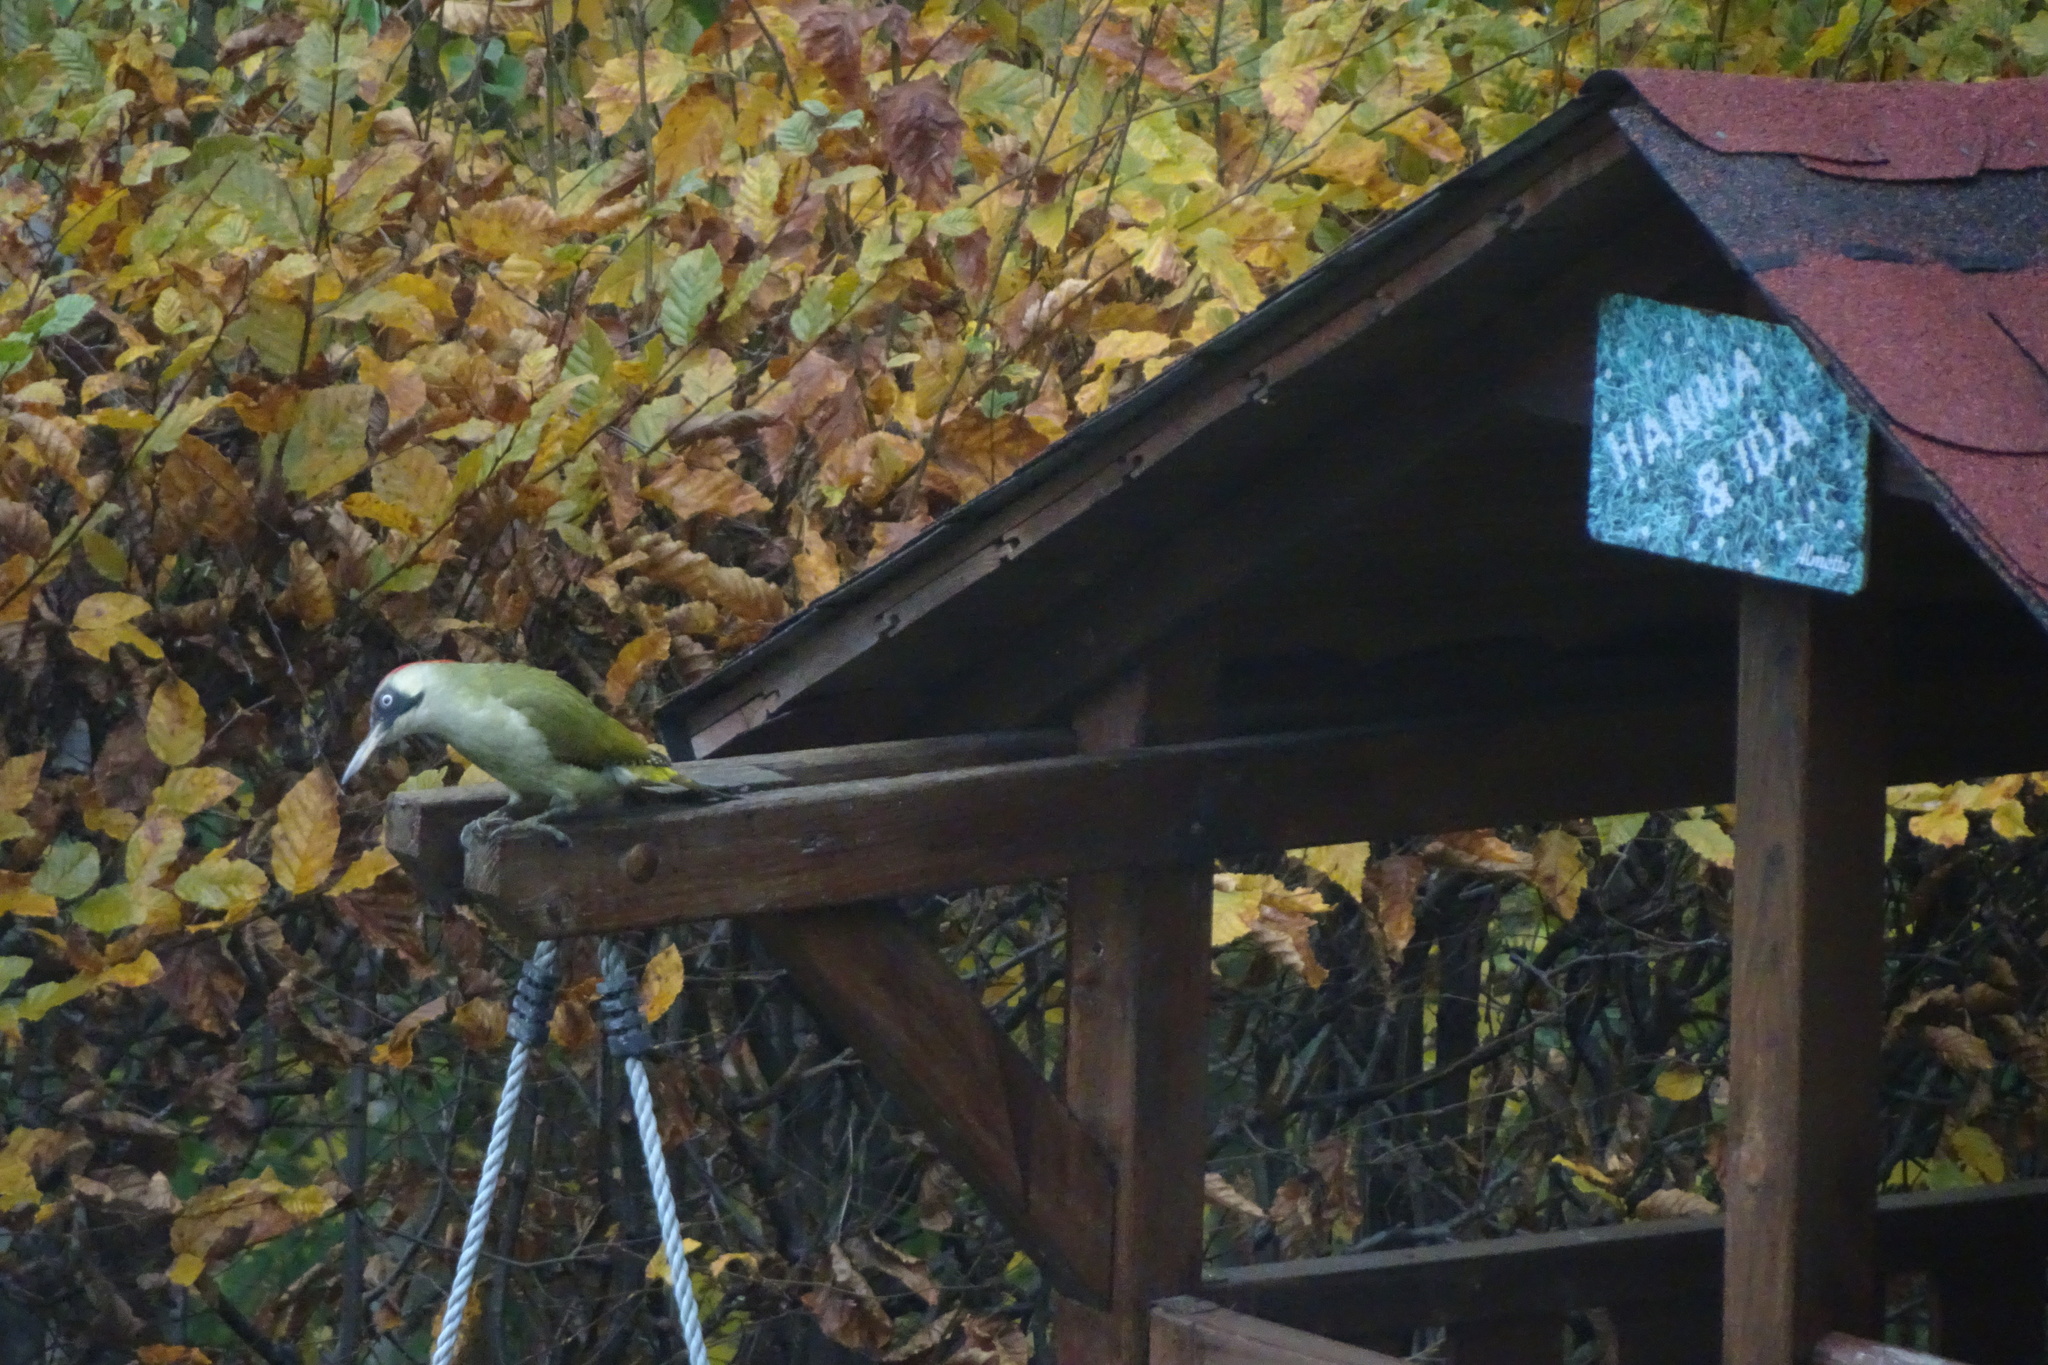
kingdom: Animalia
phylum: Chordata
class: Aves
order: Piciformes
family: Picidae
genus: Picus
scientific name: Picus viridis
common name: European green woodpecker
